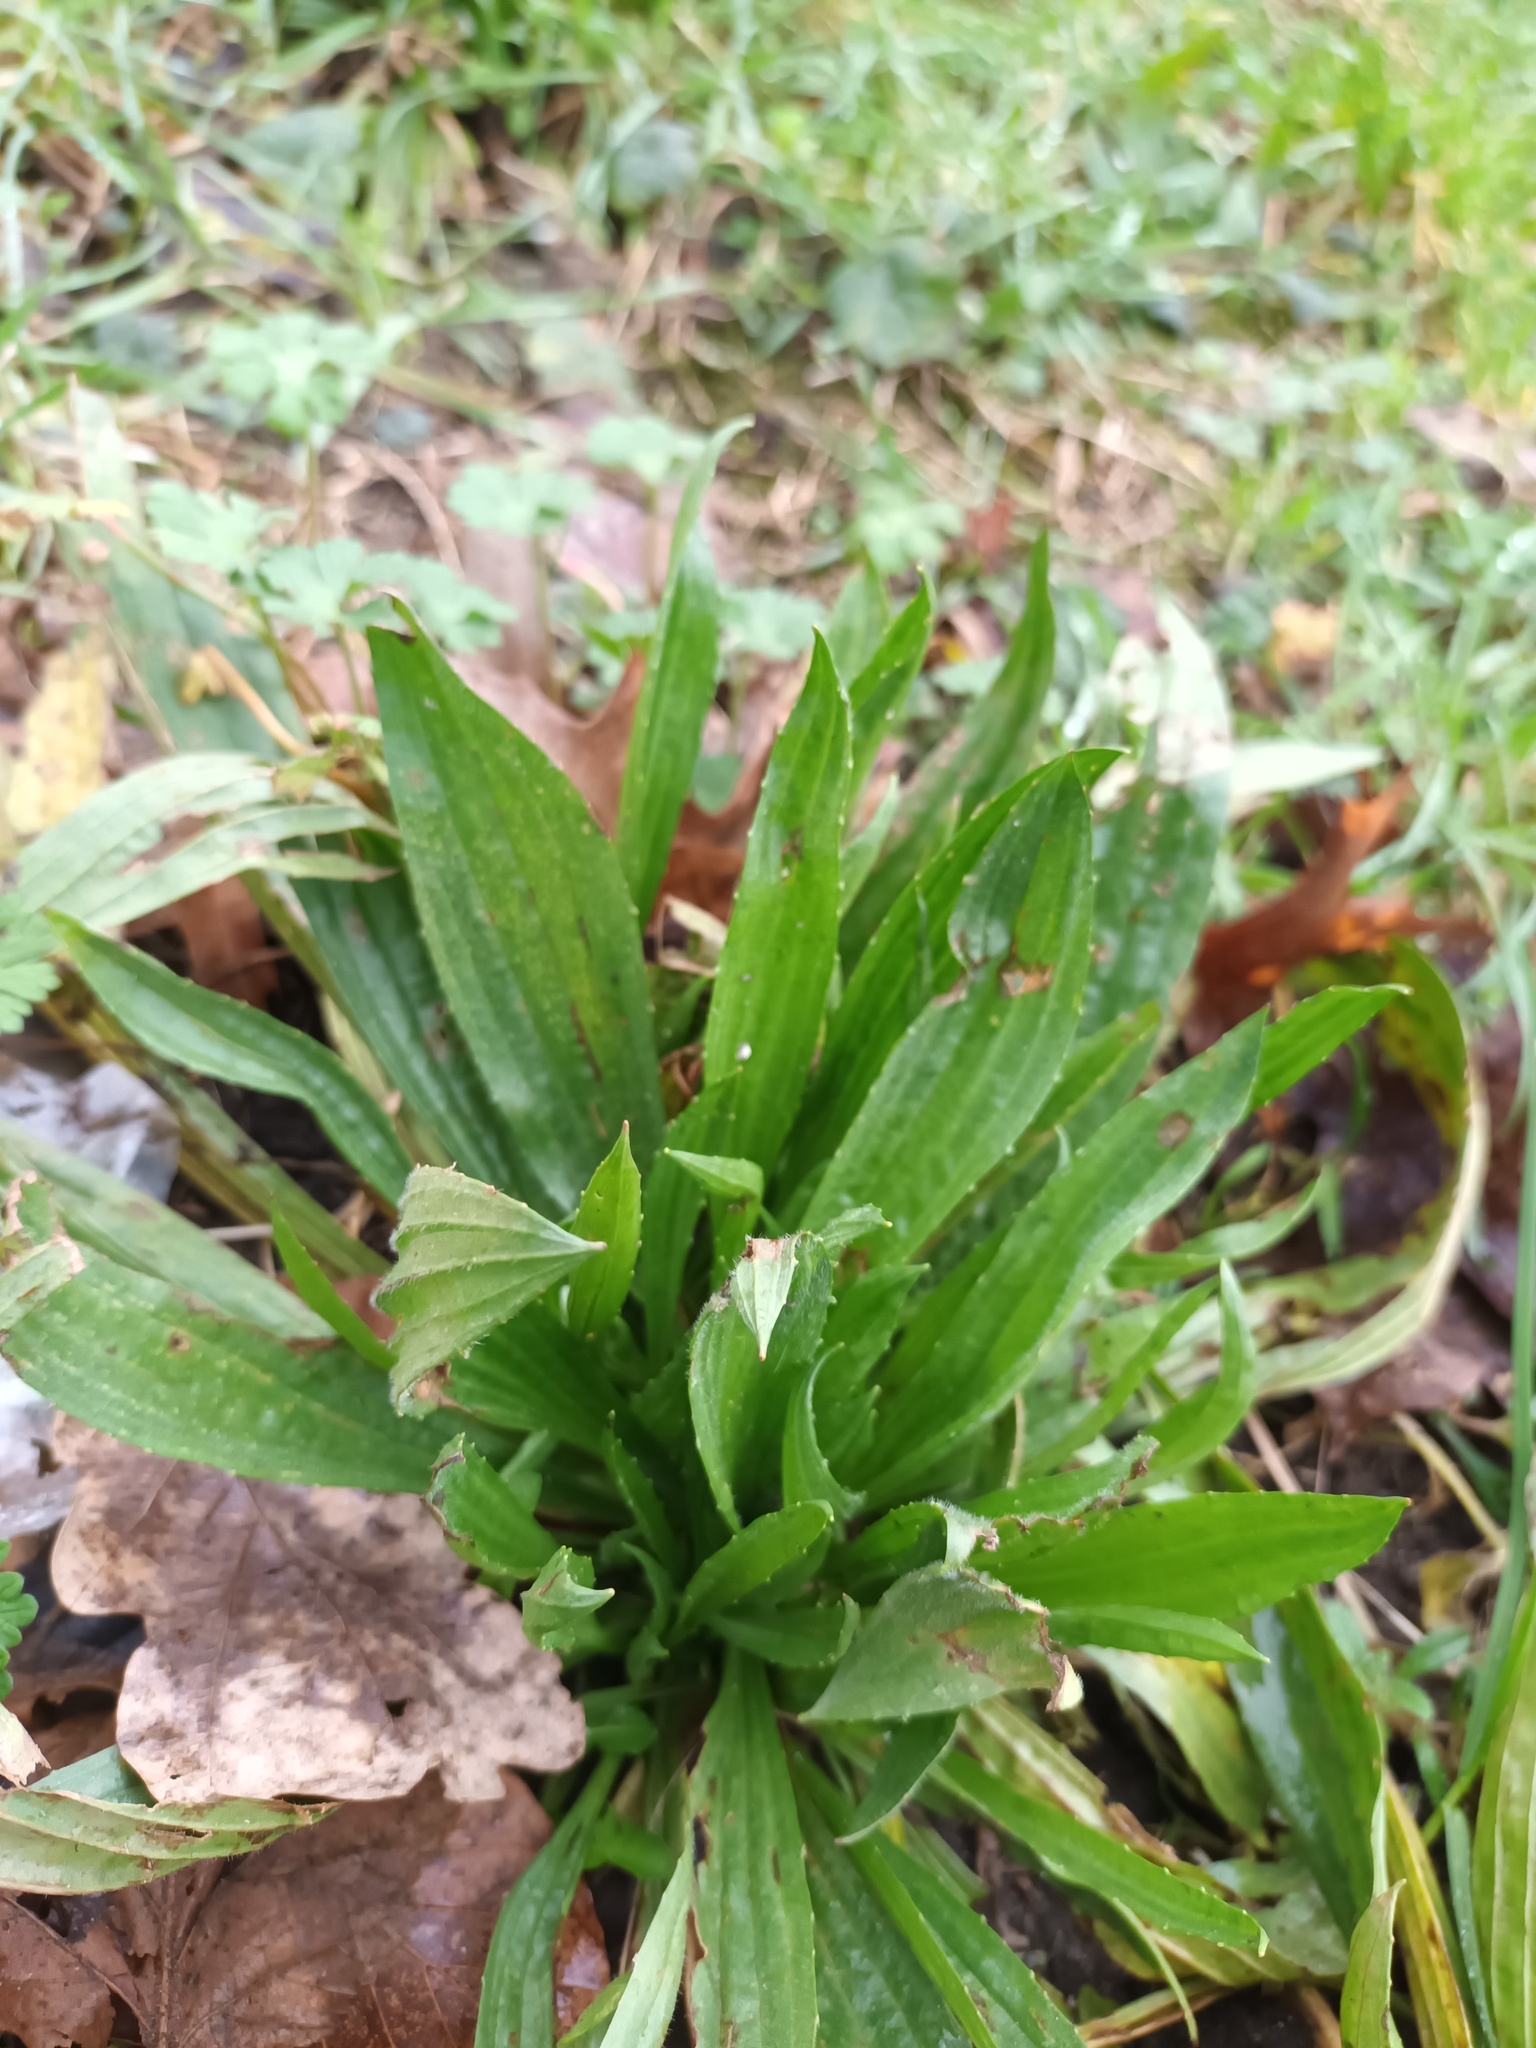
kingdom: Plantae
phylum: Tracheophyta
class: Magnoliopsida
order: Lamiales
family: Plantaginaceae
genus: Plantago
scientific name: Plantago lanceolata
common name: Ribwort plantain
